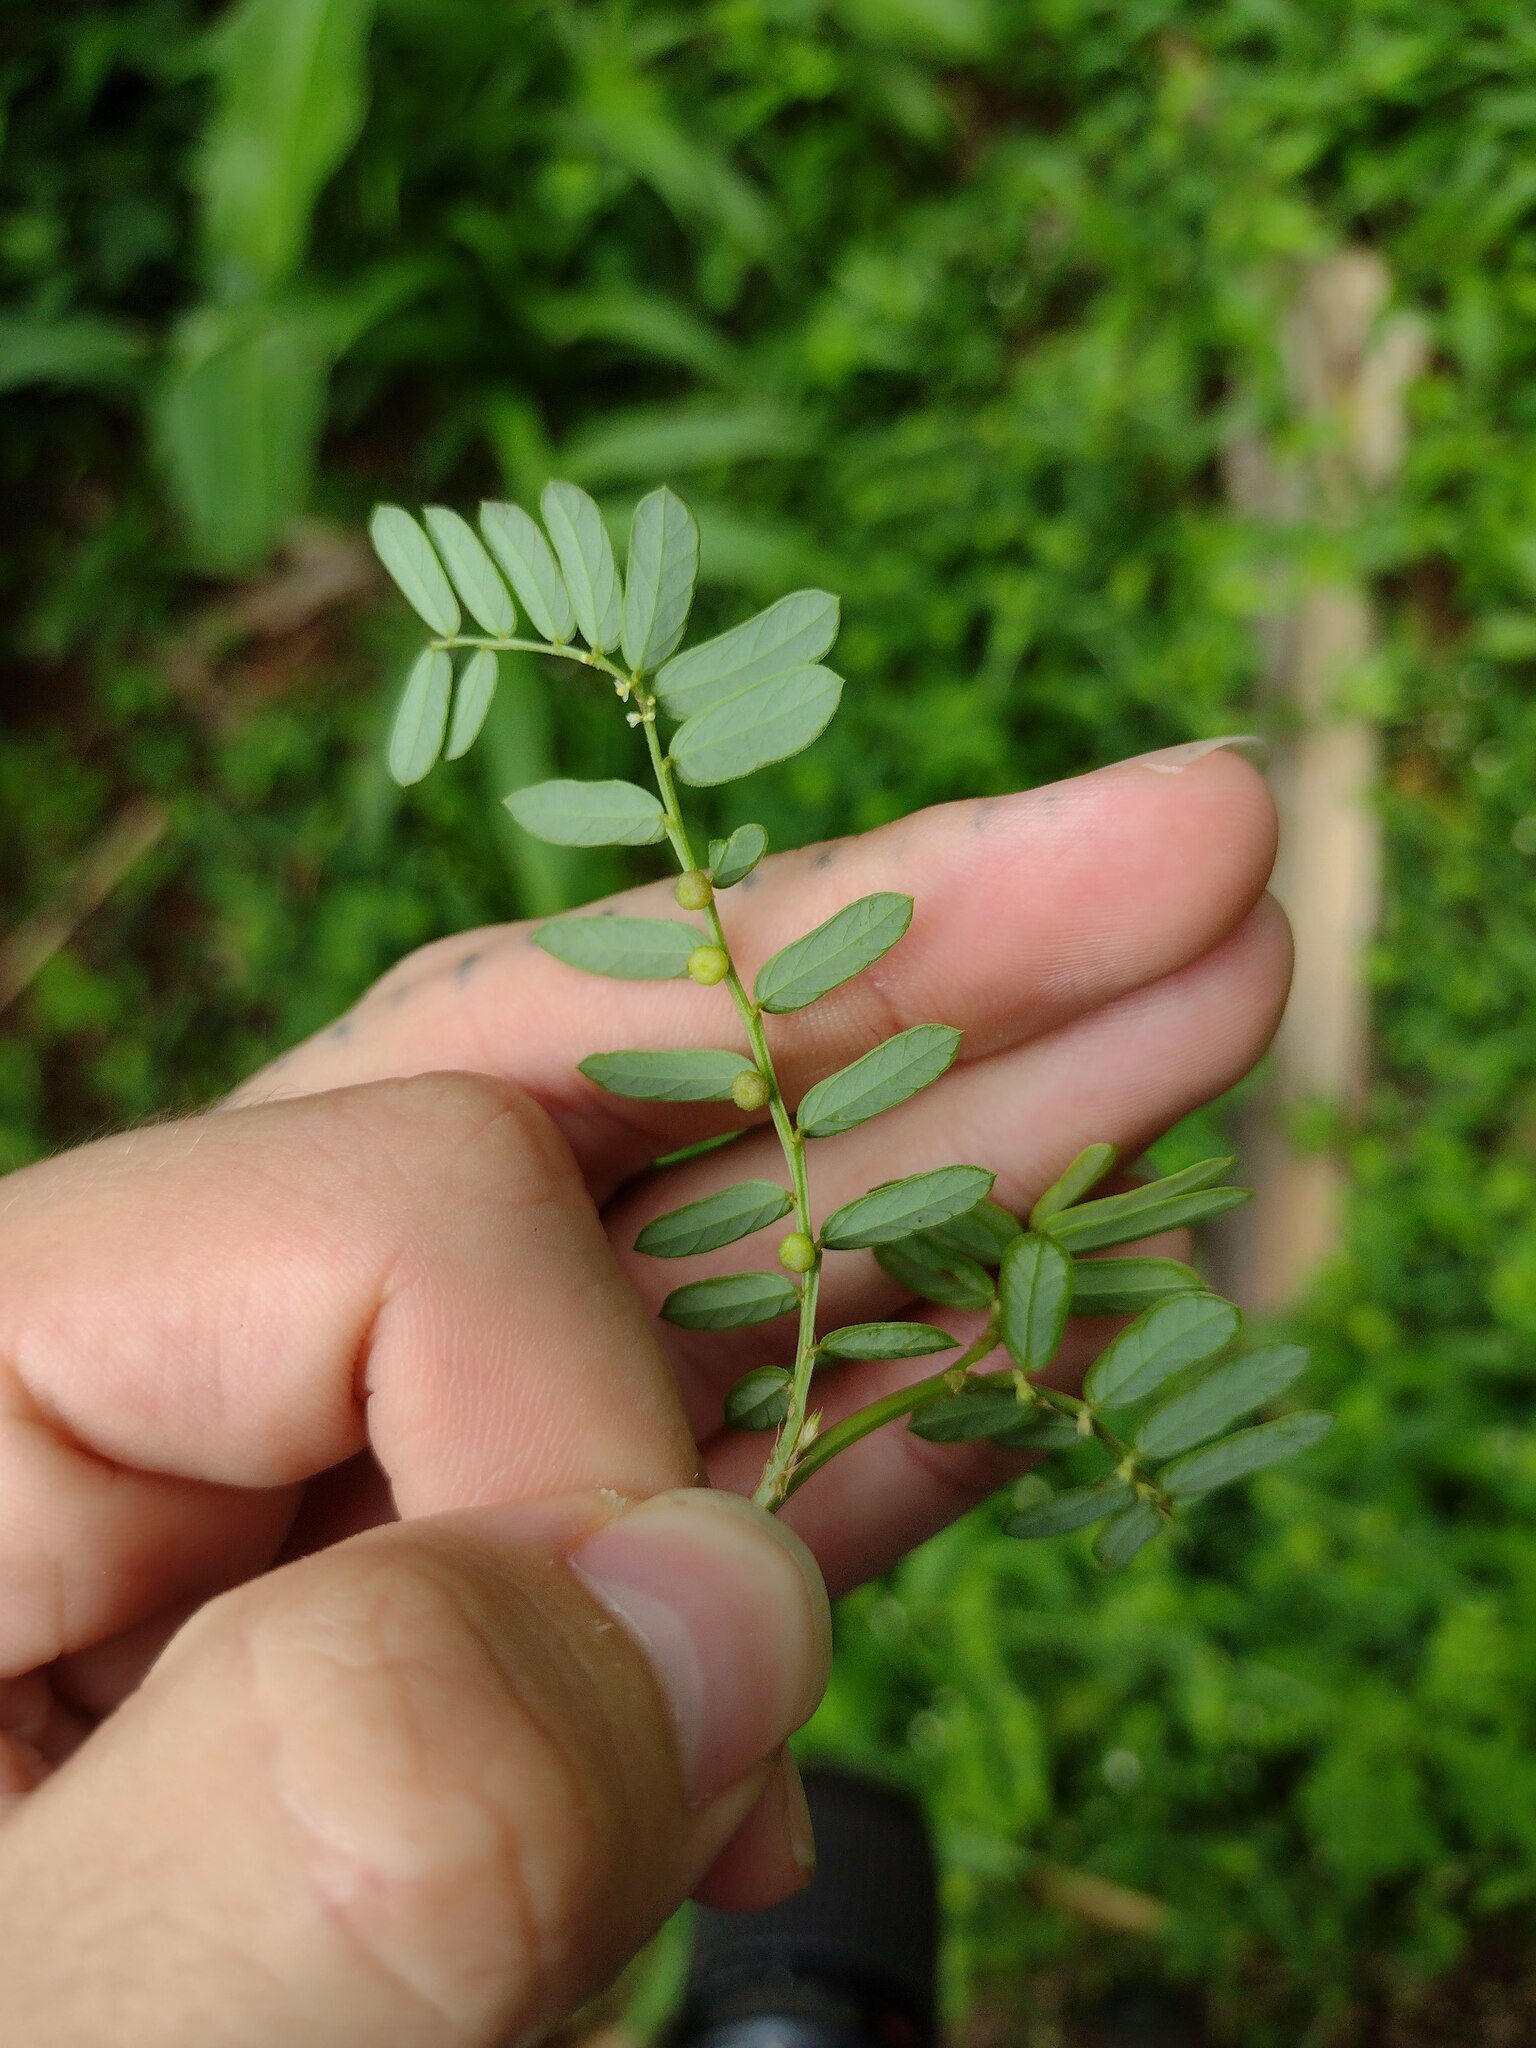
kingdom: Plantae
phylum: Tracheophyta
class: Magnoliopsida
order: Malpighiales
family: Phyllanthaceae
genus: Phyllanthus
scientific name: Phyllanthus urinaria
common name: Chamber bitter
